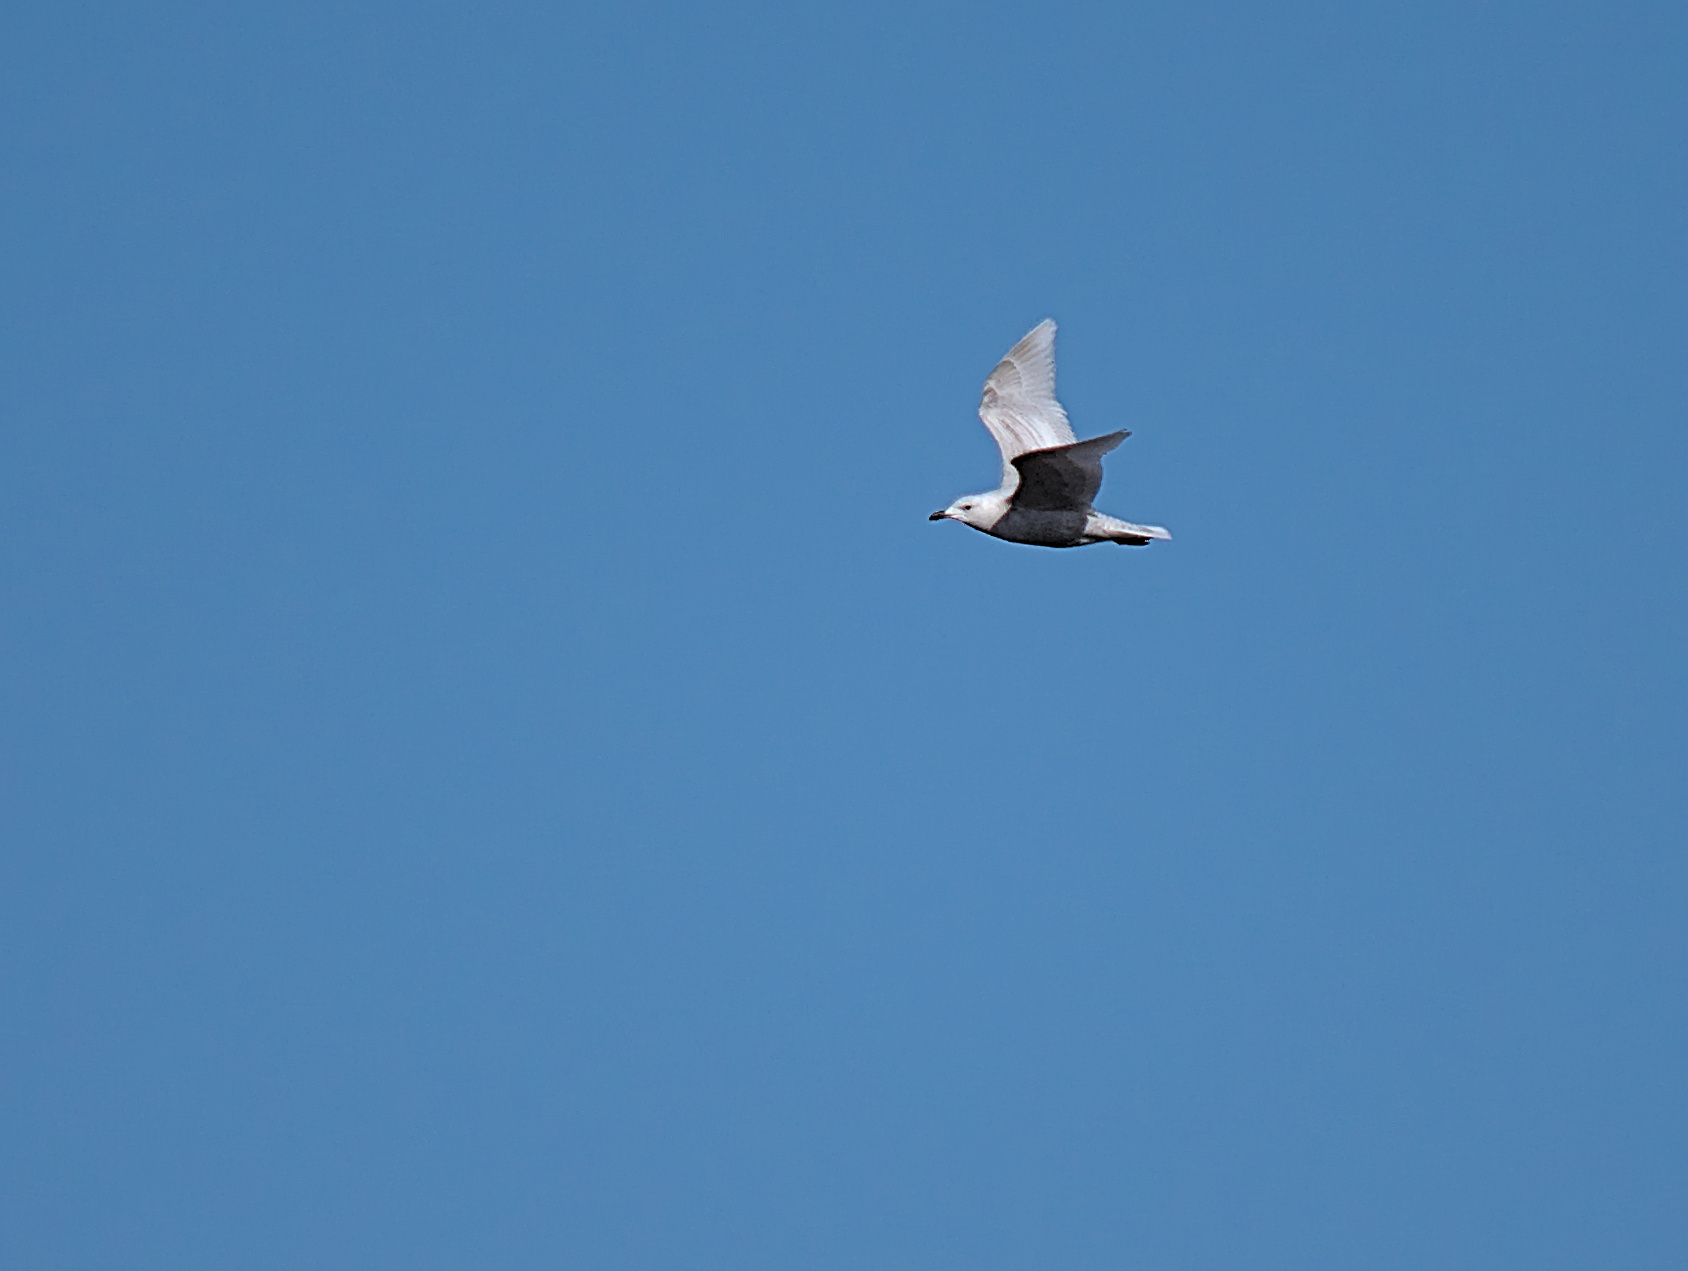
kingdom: Animalia
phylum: Chordata
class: Aves
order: Charadriiformes
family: Laridae
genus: Larus
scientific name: Larus glaucoides
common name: Iceland gull
